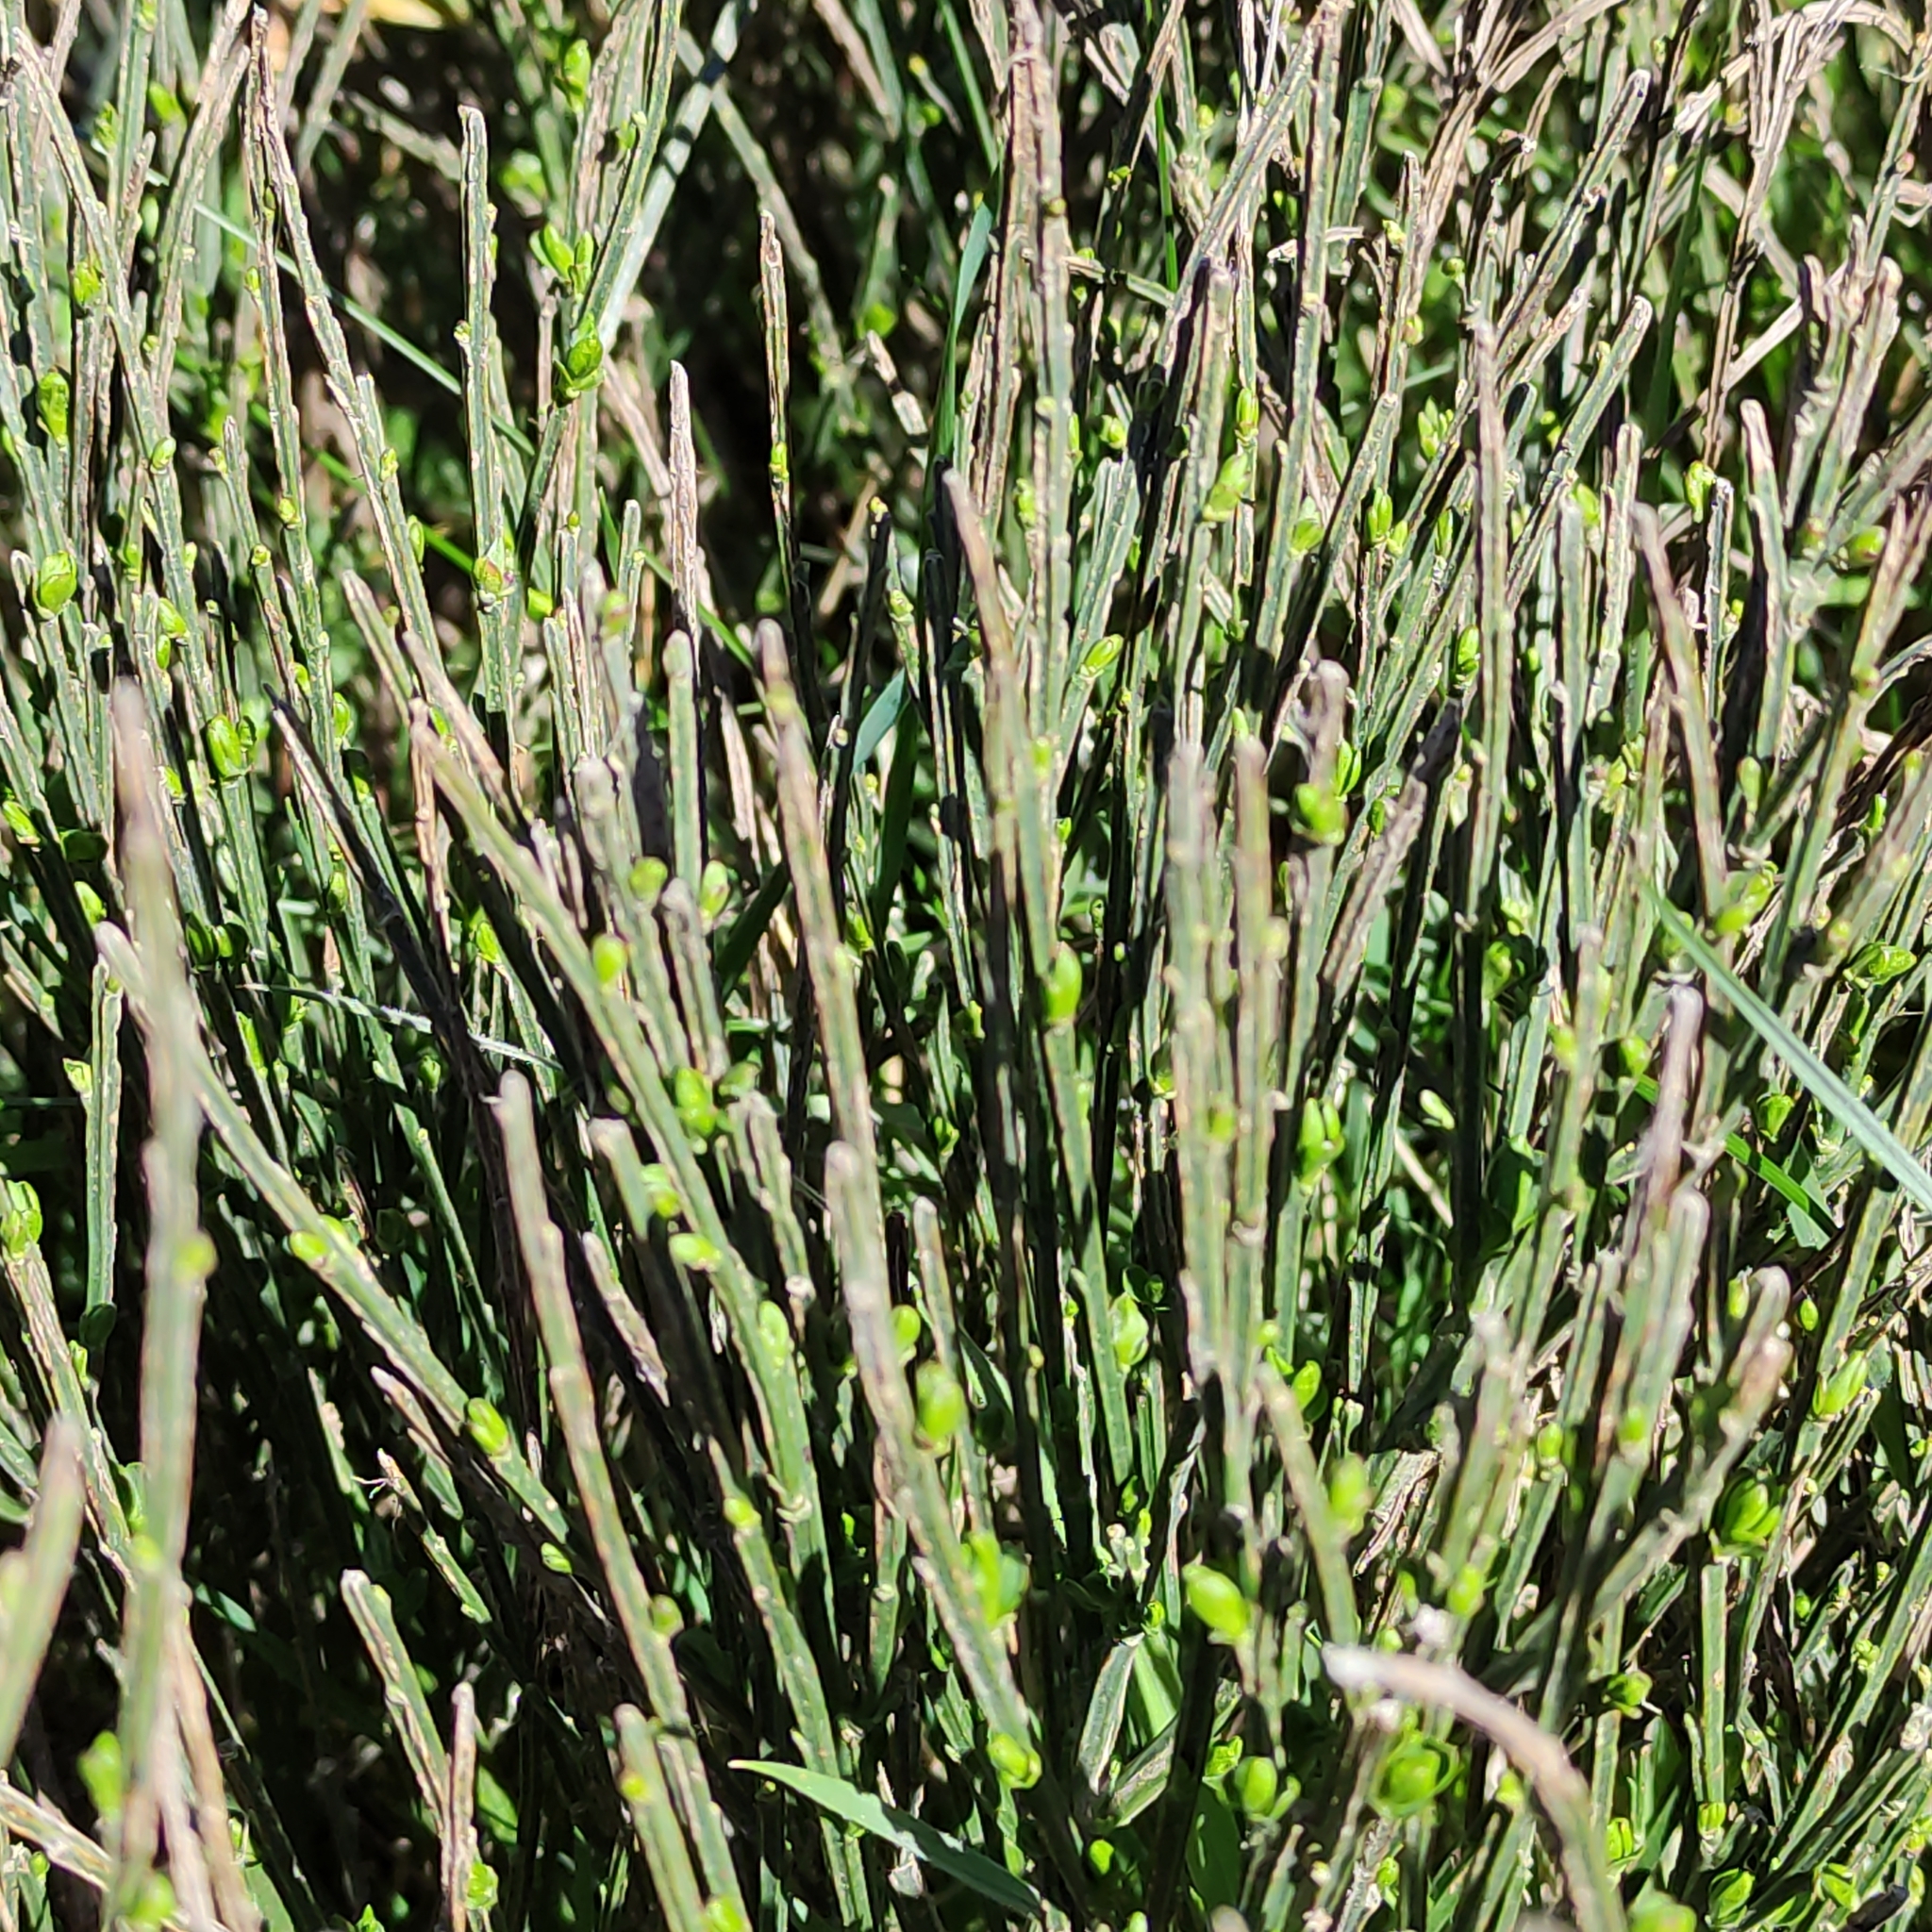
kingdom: Plantae
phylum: Tracheophyta
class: Magnoliopsida
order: Fabales
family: Fabaceae
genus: Cytisus
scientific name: Cytisus scoparius
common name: Scotch broom
